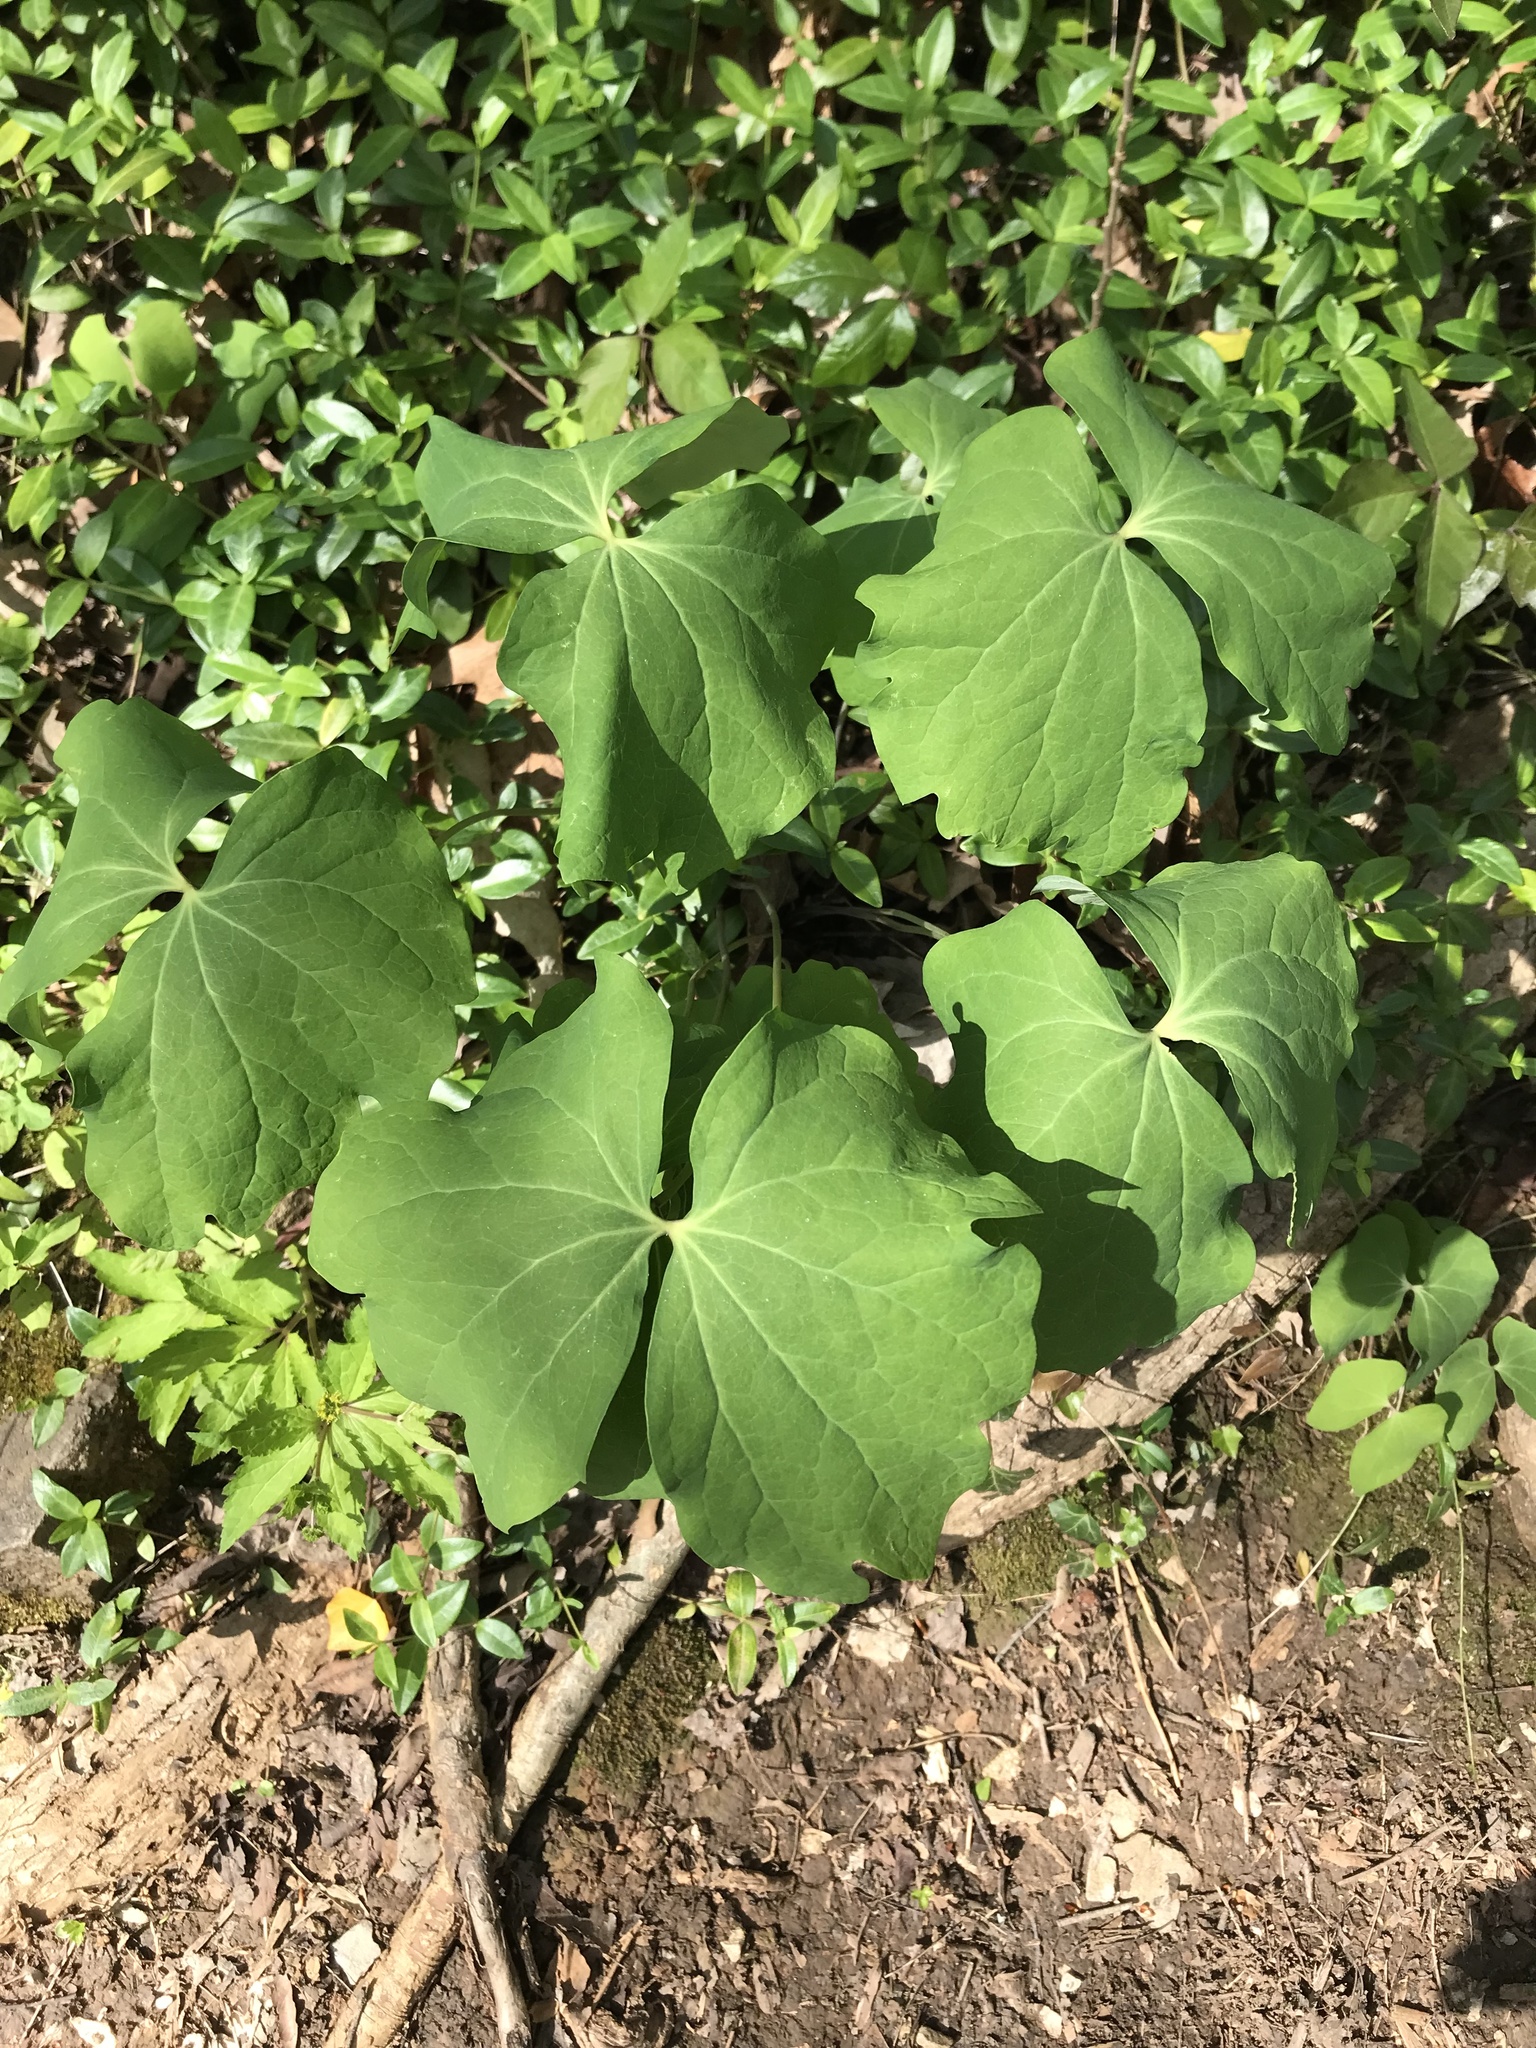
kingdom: Plantae
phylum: Tracheophyta
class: Magnoliopsida
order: Ranunculales
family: Berberidaceae
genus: Jeffersonia
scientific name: Jeffersonia diphylla
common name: Rheumatism-root
